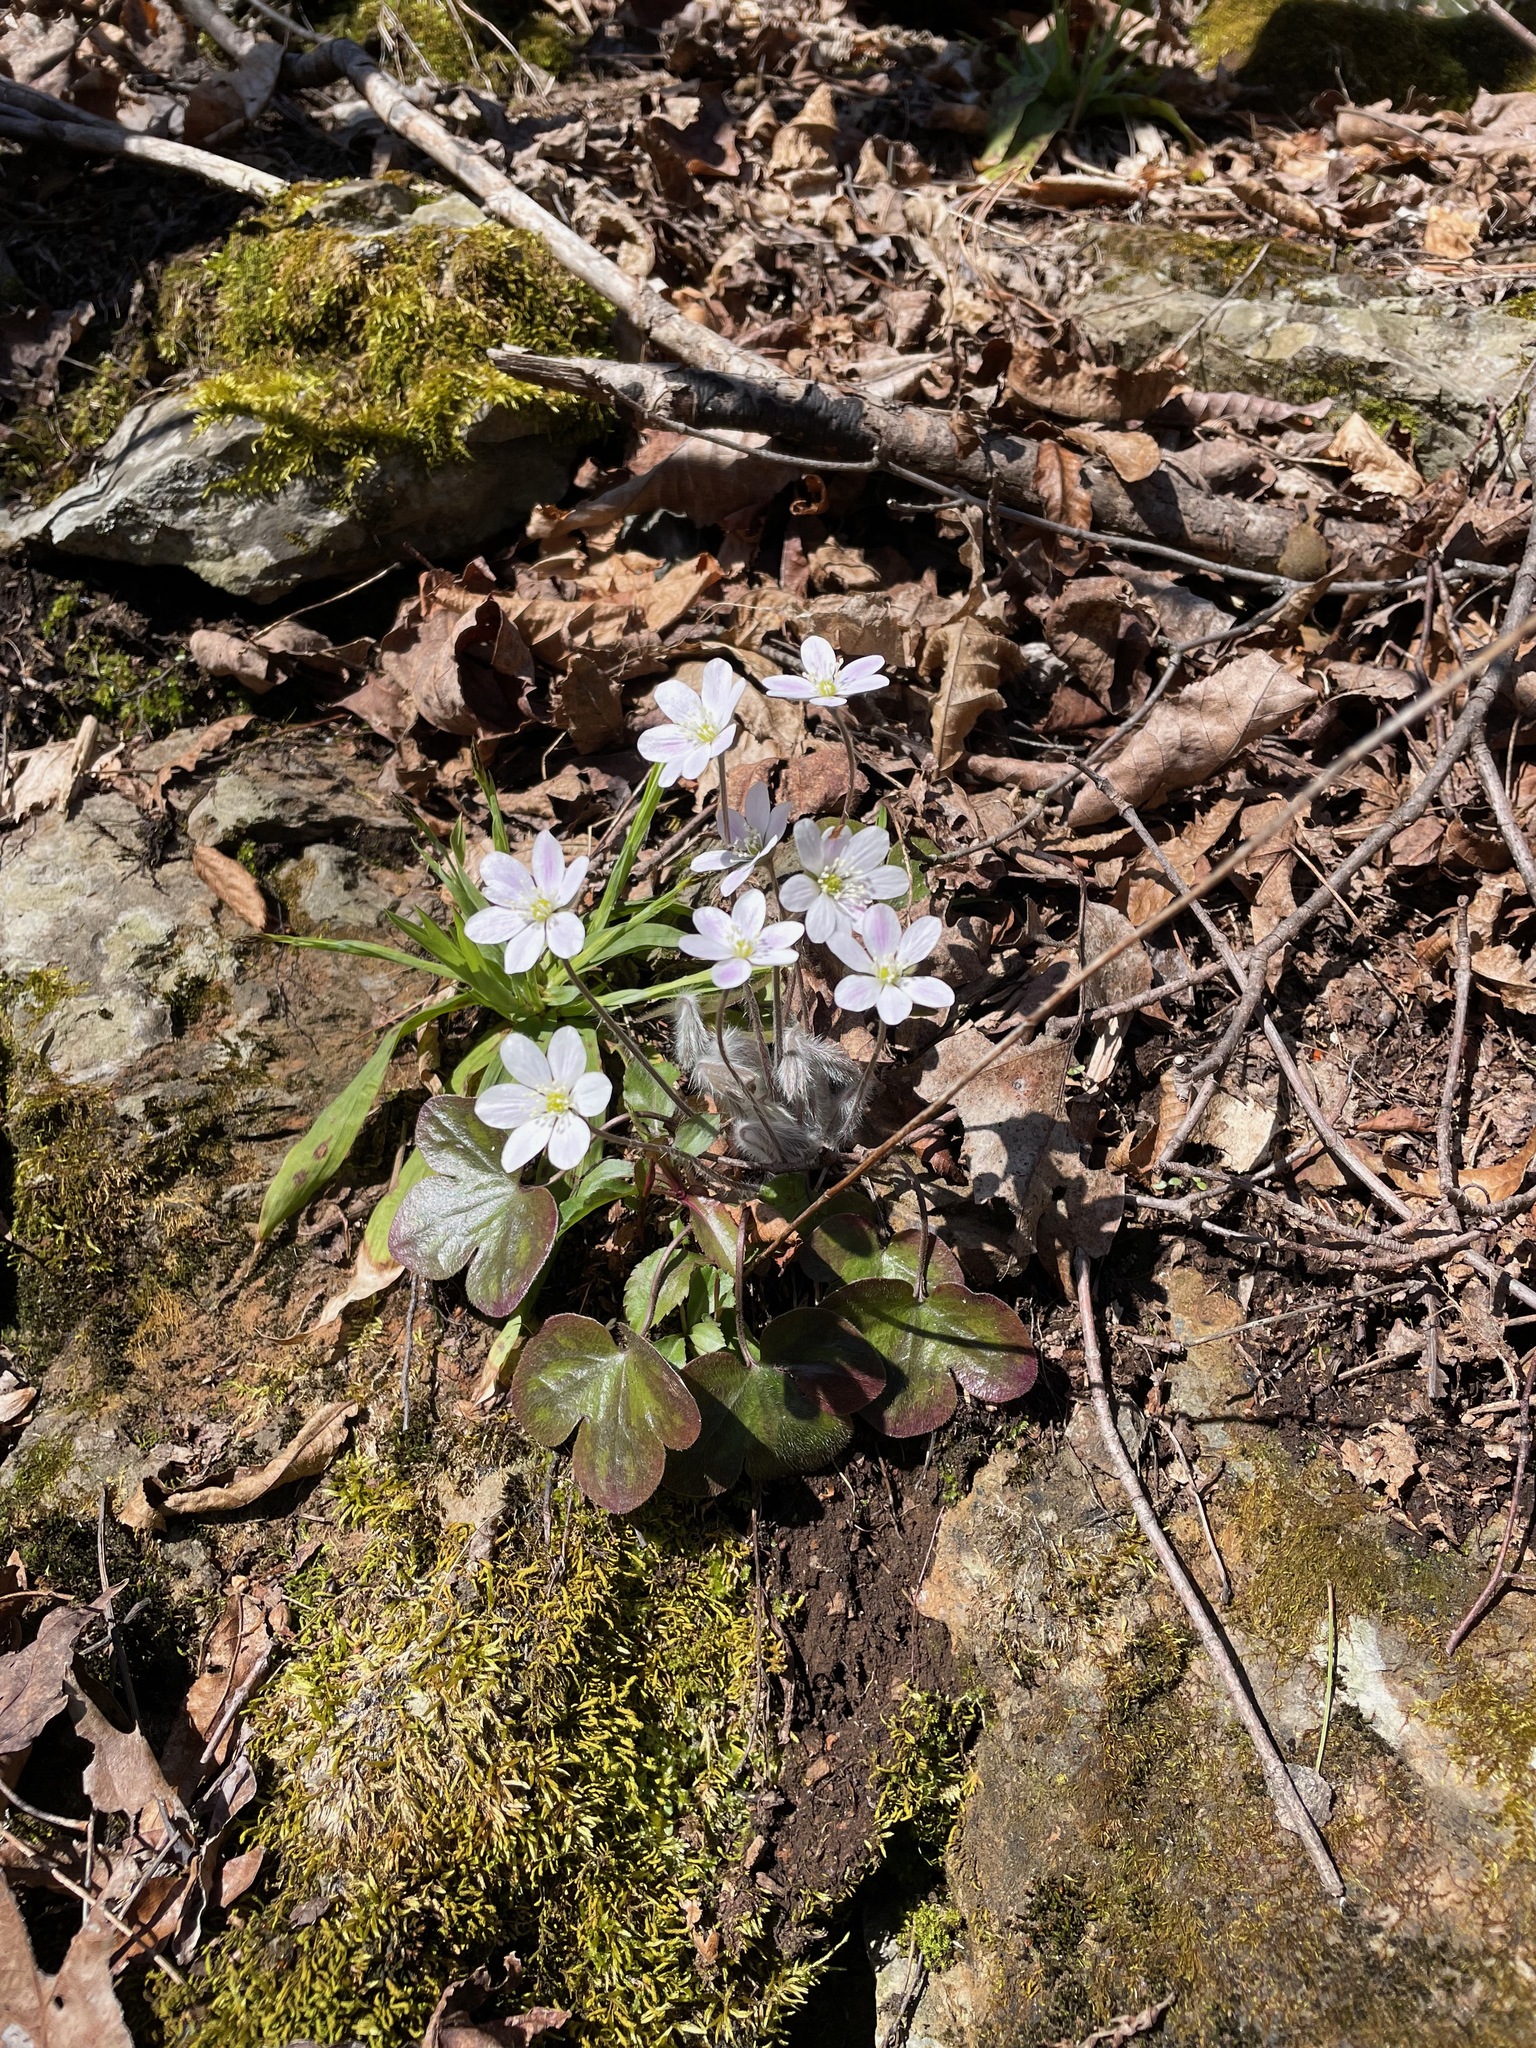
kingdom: Plantae
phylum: Tracheophyta
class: Magnoliopsida
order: Ranunculales
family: Ranunculaceae
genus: Hepatica
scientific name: Hepatica americana
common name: American hepatica
